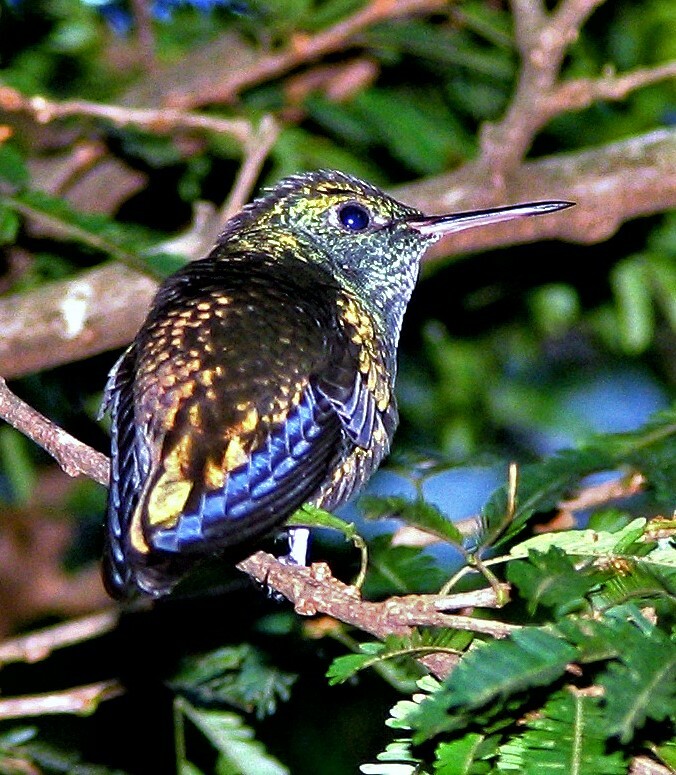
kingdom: Animalia
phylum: Chordata
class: Aves
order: Apodiformes
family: Trochilidae
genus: Chrysuronia
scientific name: Chrysuronia versicolor
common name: Versicolored emerald
